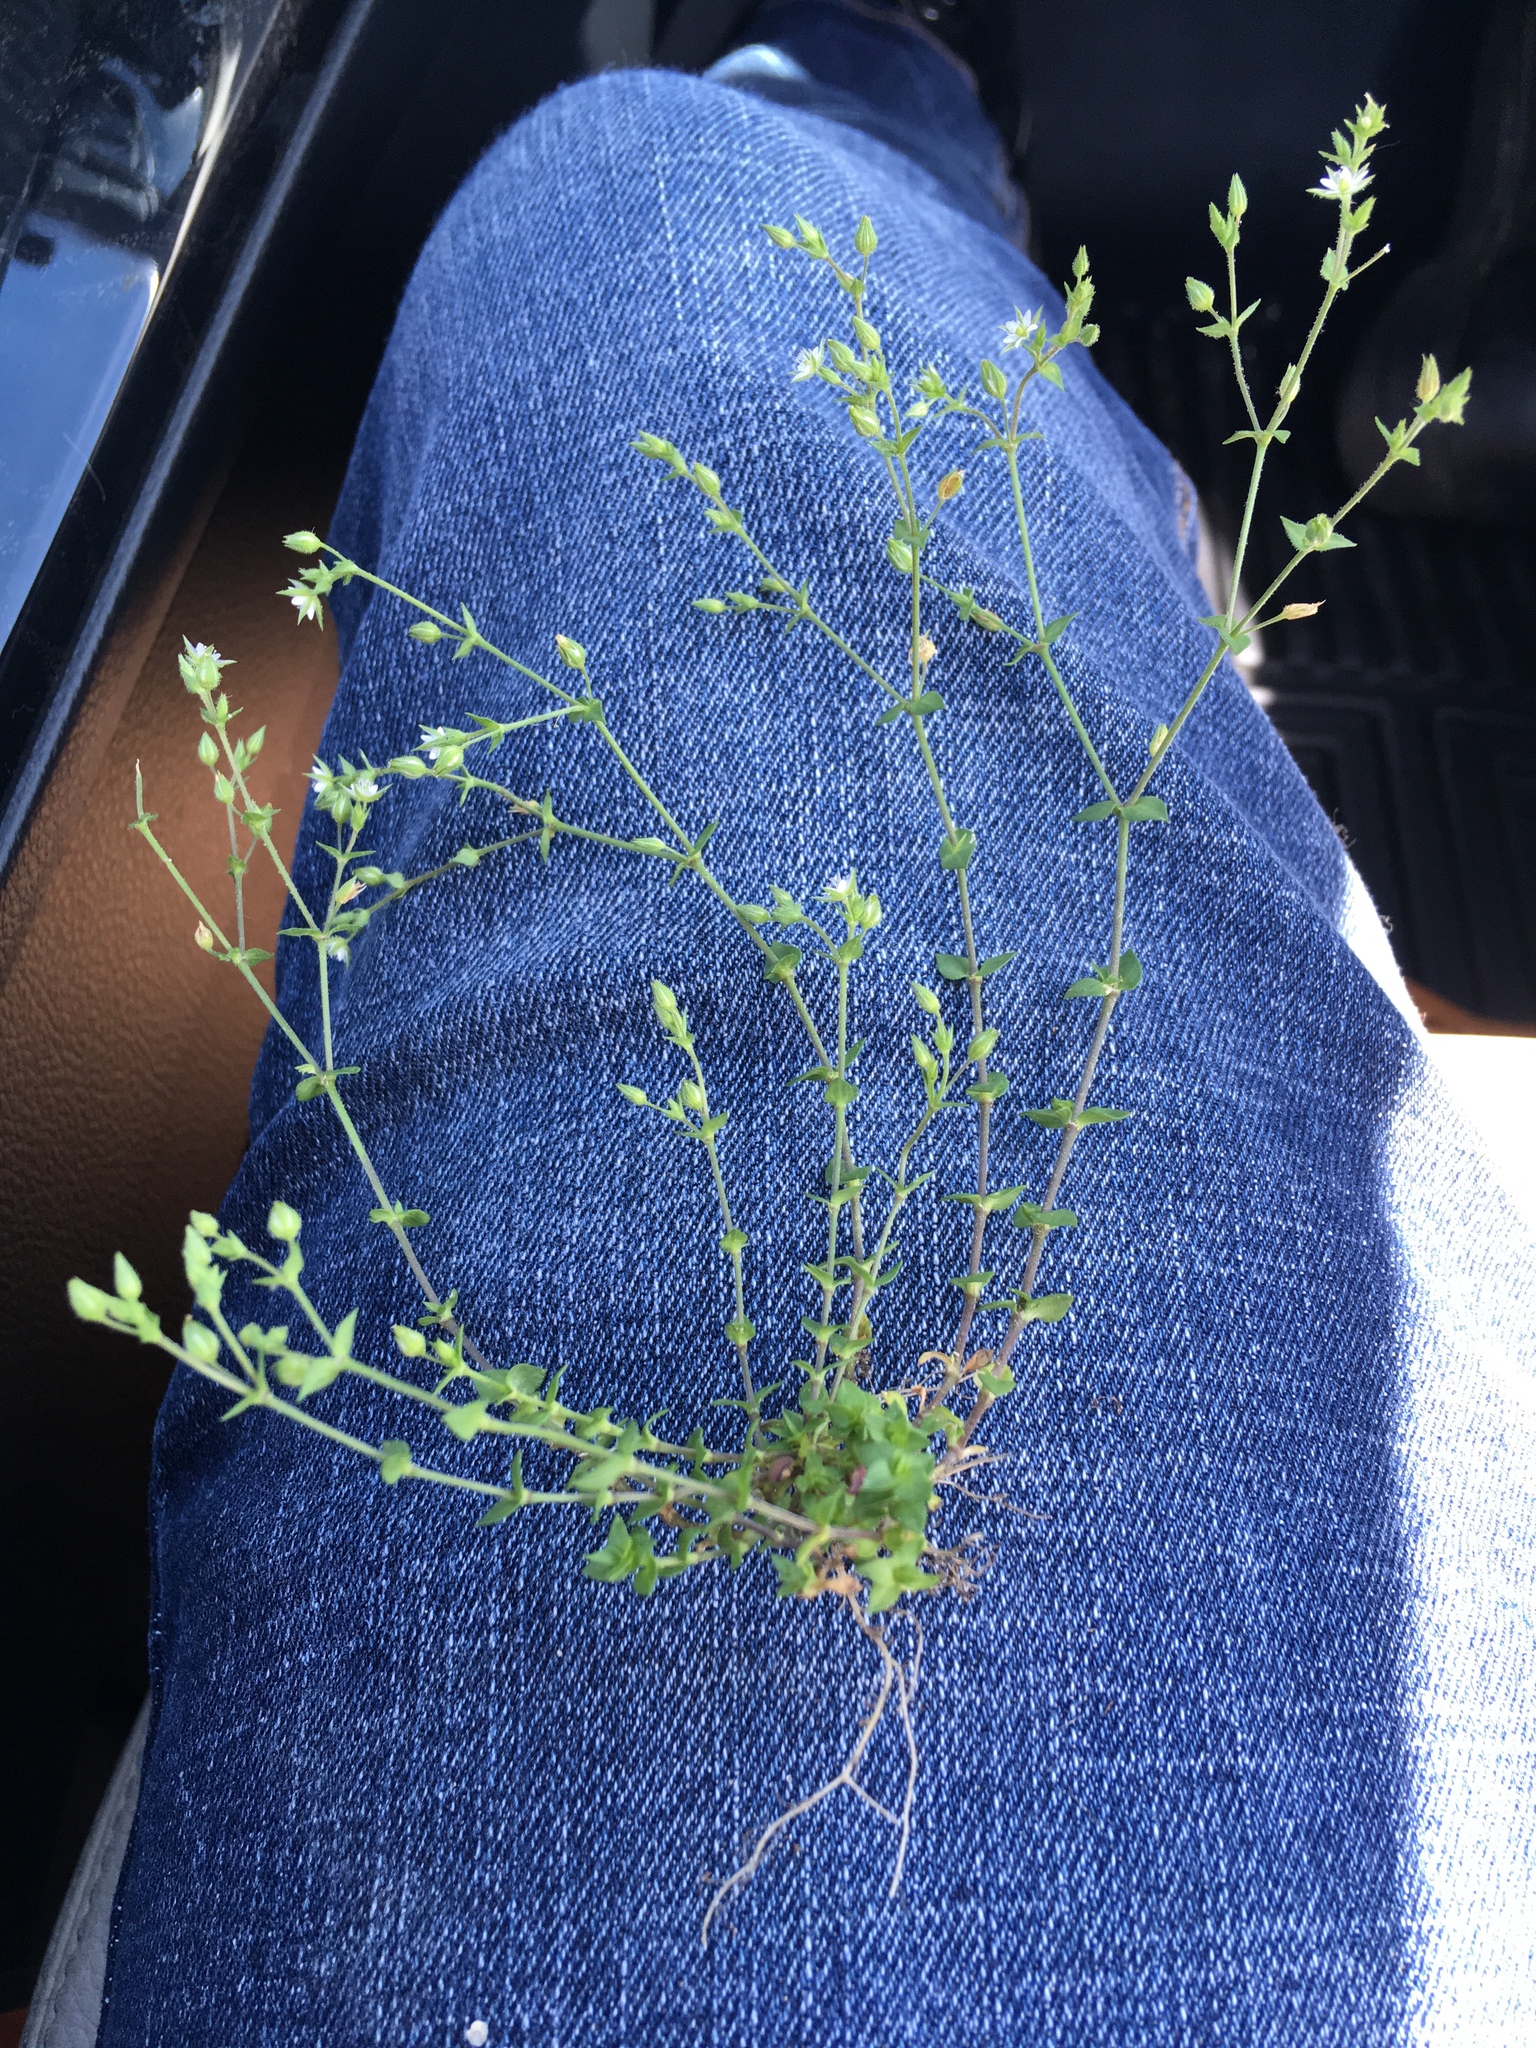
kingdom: Plantae
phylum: Tracheophyta
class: Magnoliopsida
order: Caryophyllales
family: Caryophyllaceae
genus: Arenaria
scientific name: Arenaria serpyllifolia
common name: Thyme-leaved sandwort
